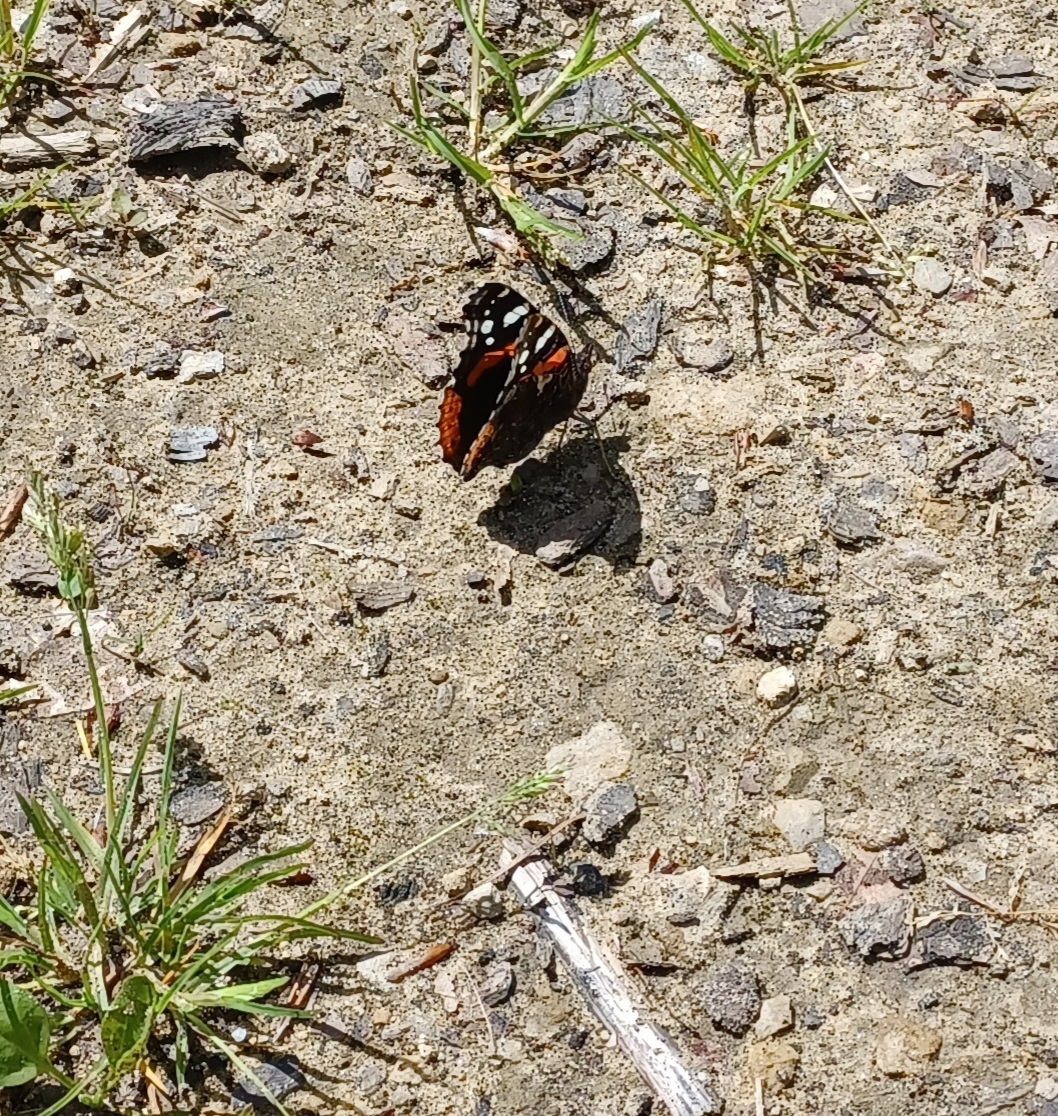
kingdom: Animalia
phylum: Arthropoda
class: Insecta
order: Lepidoptera
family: Nymphalidae
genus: Vanessa
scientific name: Vanessa atalanta
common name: Red admiral
